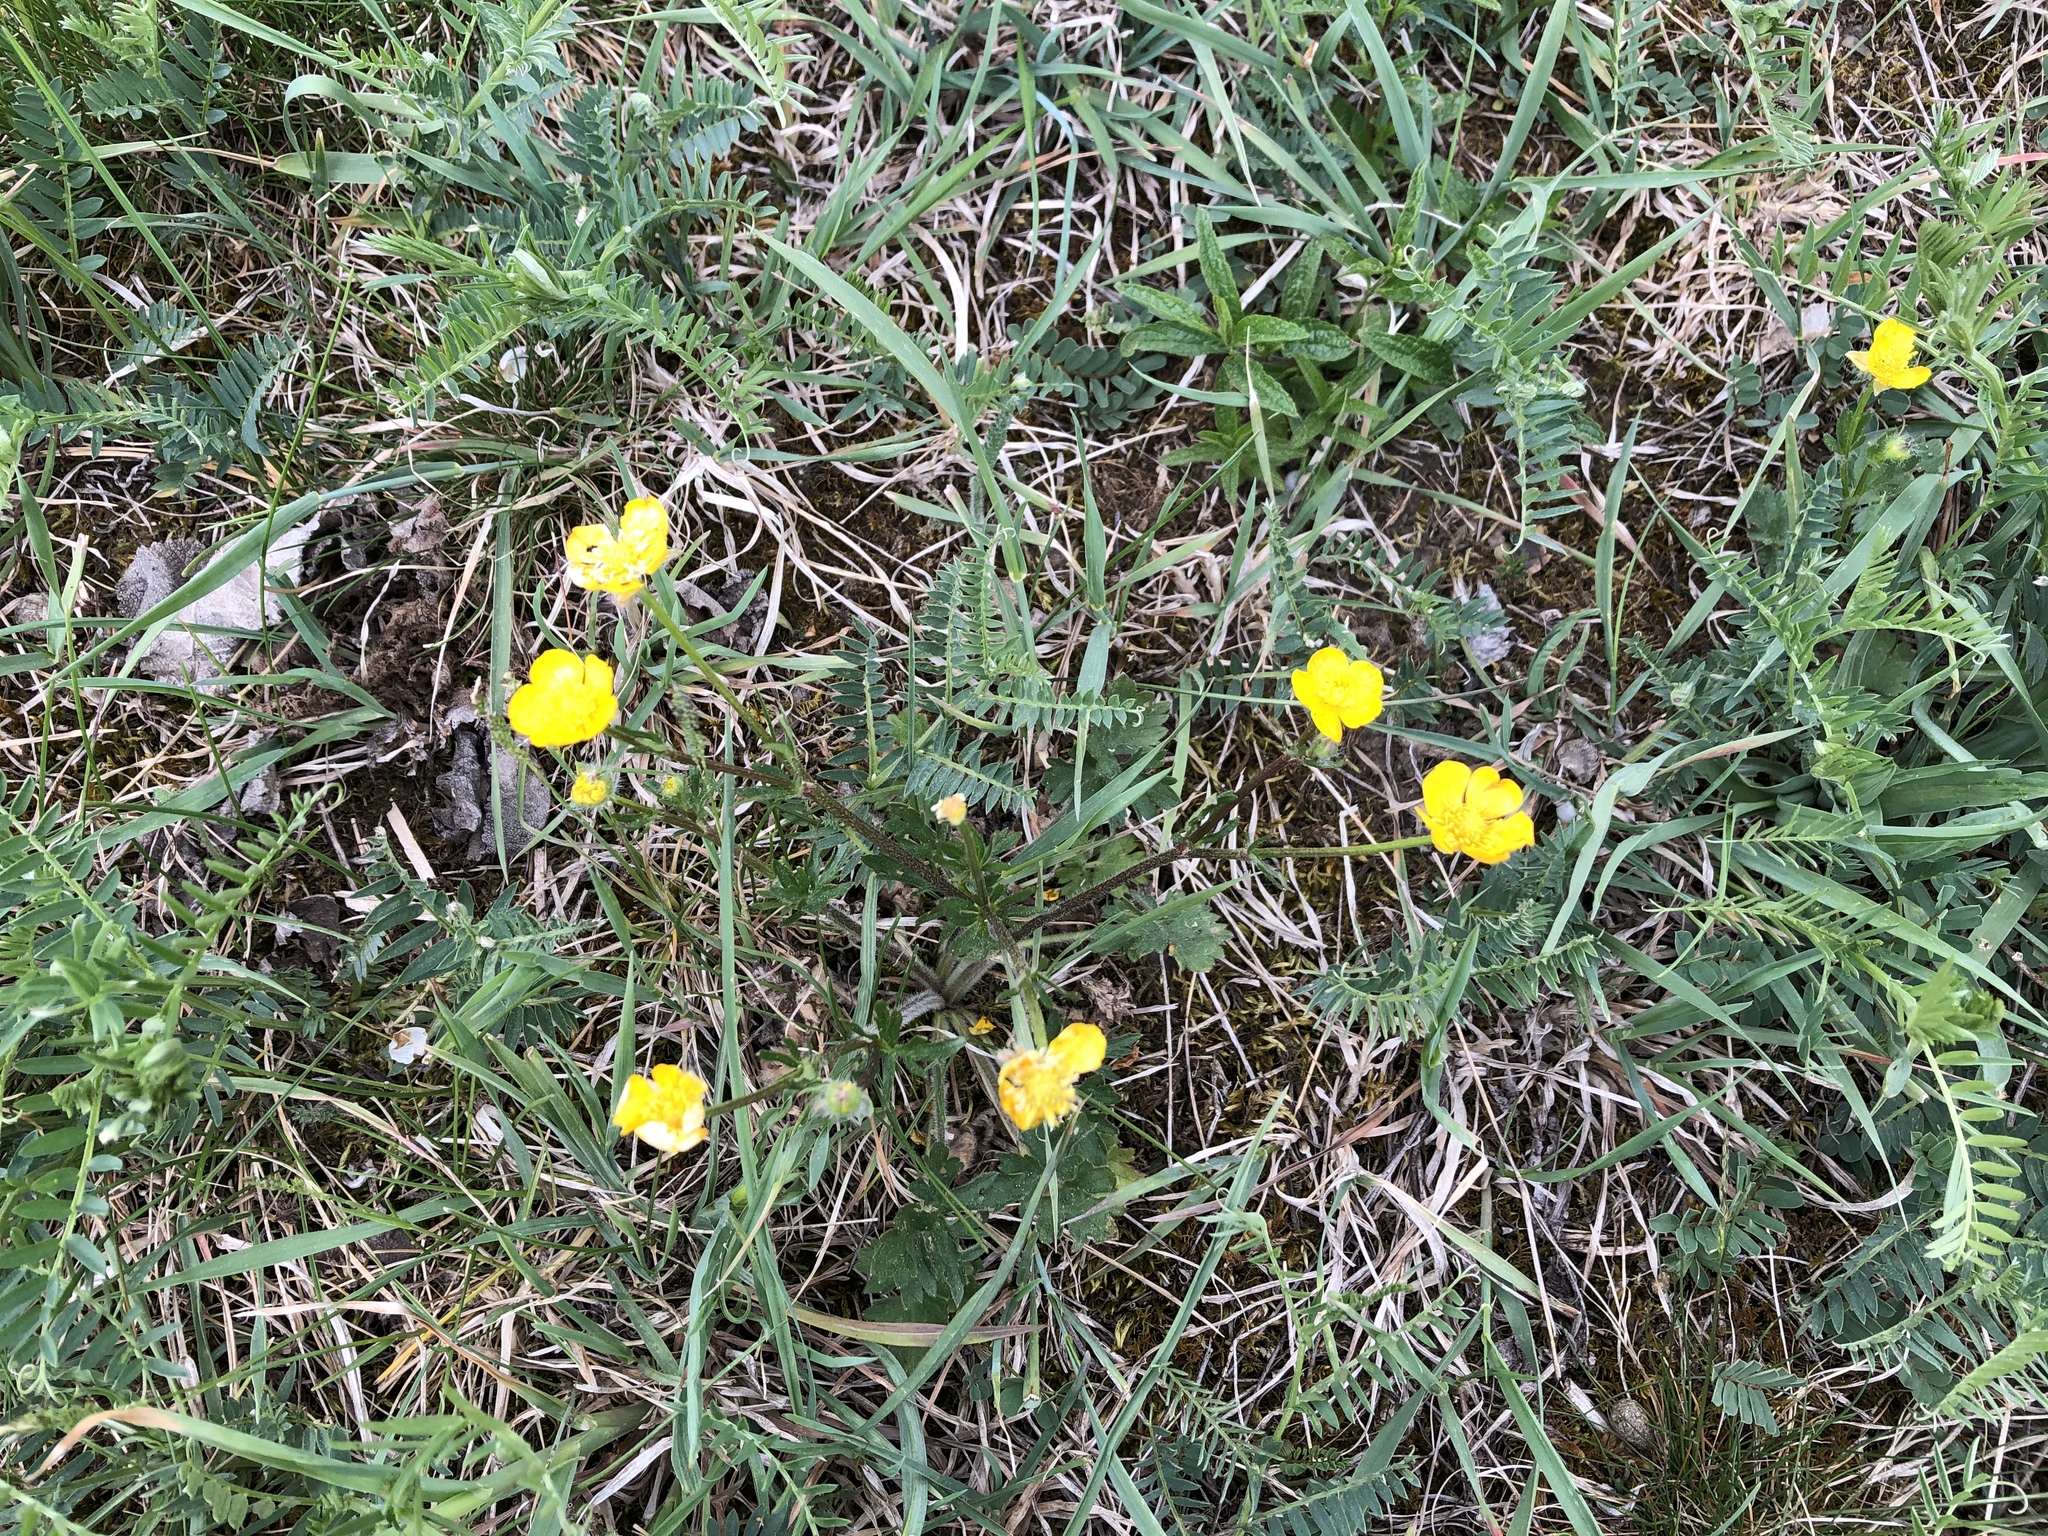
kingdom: Plantae
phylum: Tracheophyta
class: Magnoliopsida
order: Ranunculales
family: Ranunculaceae
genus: Ranunculus
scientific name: Ranunculus bulbosus
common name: Bulbous buttercup
